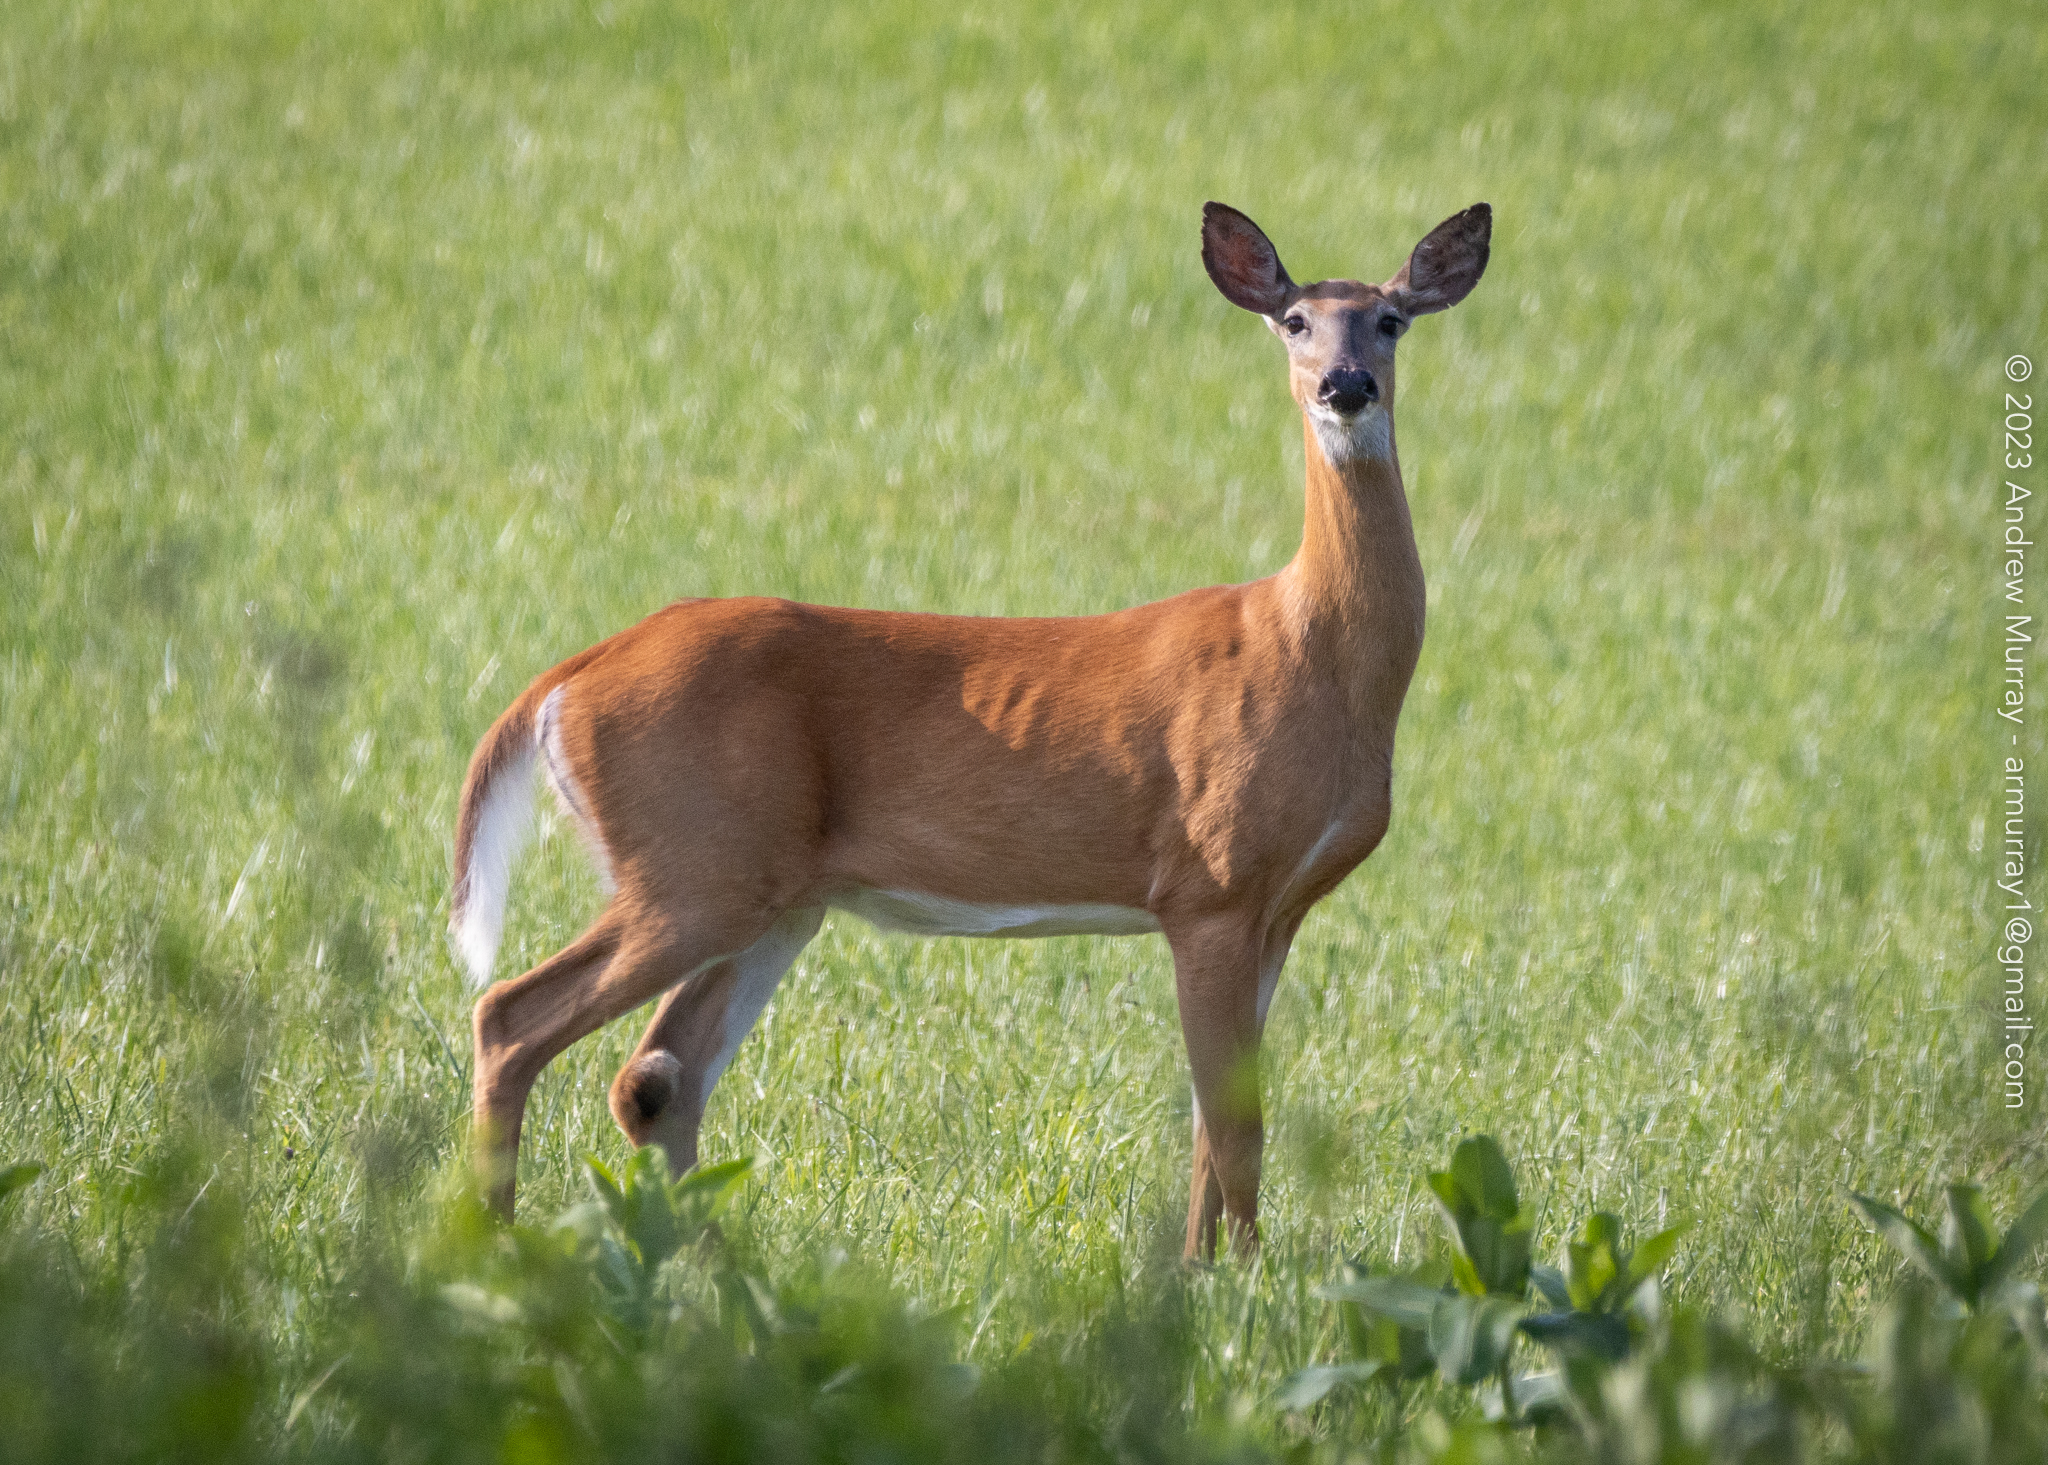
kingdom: Animalia
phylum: Chordata
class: Mammalia
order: Artiodactyla
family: Cervidae
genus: Odocoileus
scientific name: Odocoileus virginianus
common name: White-tailed deer
